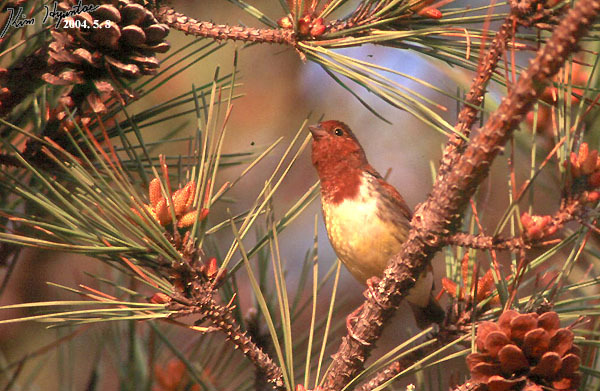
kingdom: Animalia
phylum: Chordata
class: Aves
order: Passeriformes
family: Emberizidae
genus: Emberiza
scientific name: Emberiza rutila
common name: Chestnut bunting
